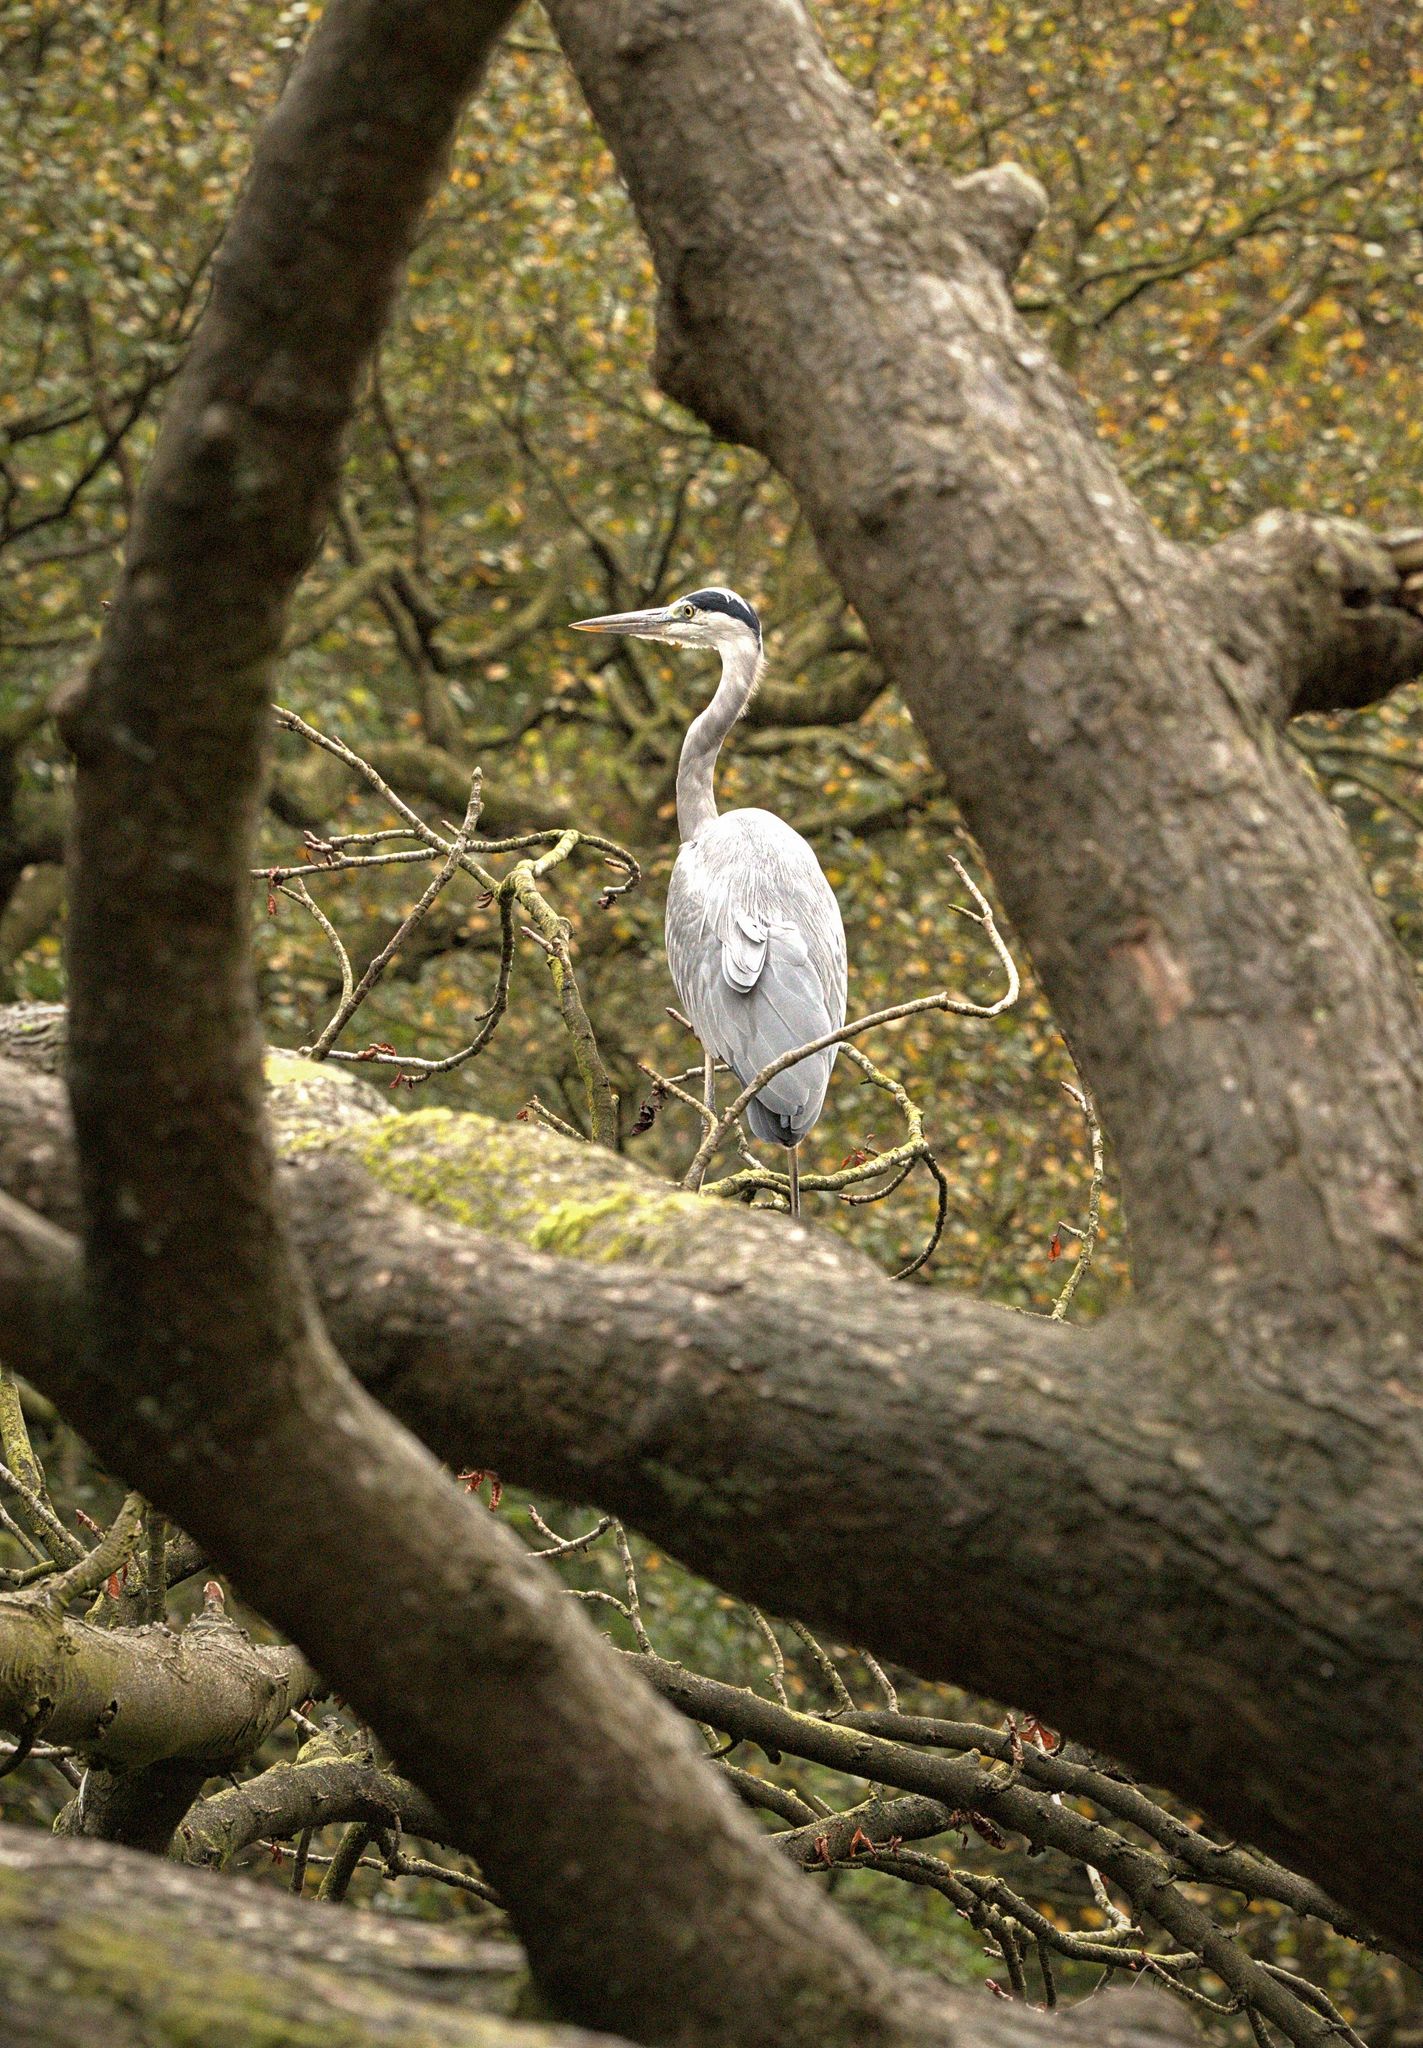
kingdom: Animalia
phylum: Chordata
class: Aves
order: Pelecaniformes
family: Ardeidae
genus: Ardea
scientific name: Ardea cinerea
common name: Grey heron
